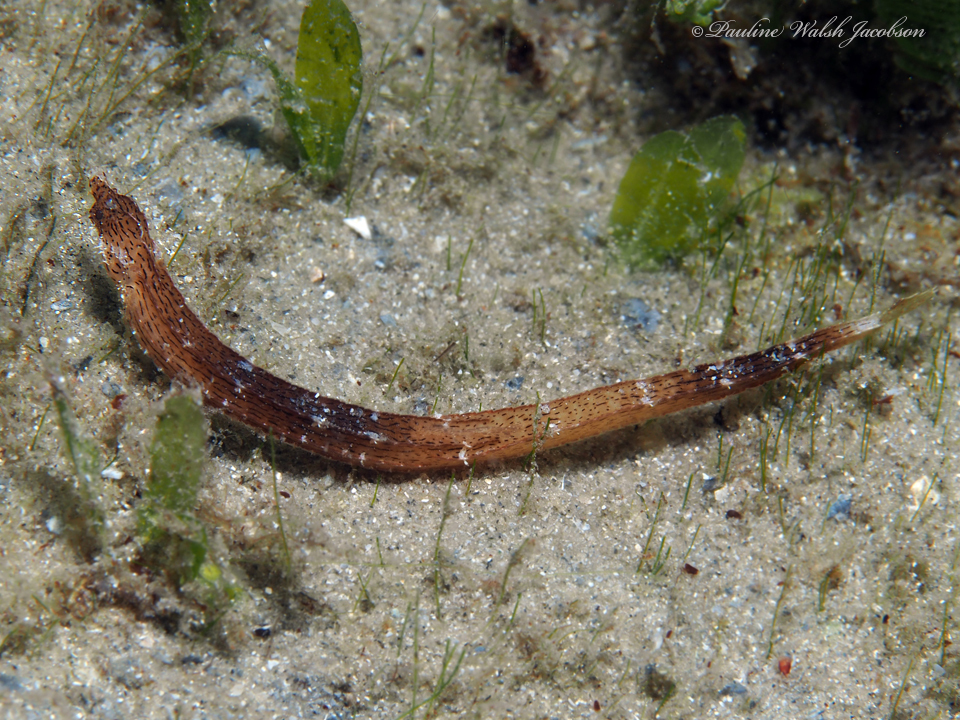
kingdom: Animalia
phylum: Chordata
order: Syngnathiformes
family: Syngnathidae
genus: Cosmocampus
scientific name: Cosmocampus brachycephalus
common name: American crested pipefish
